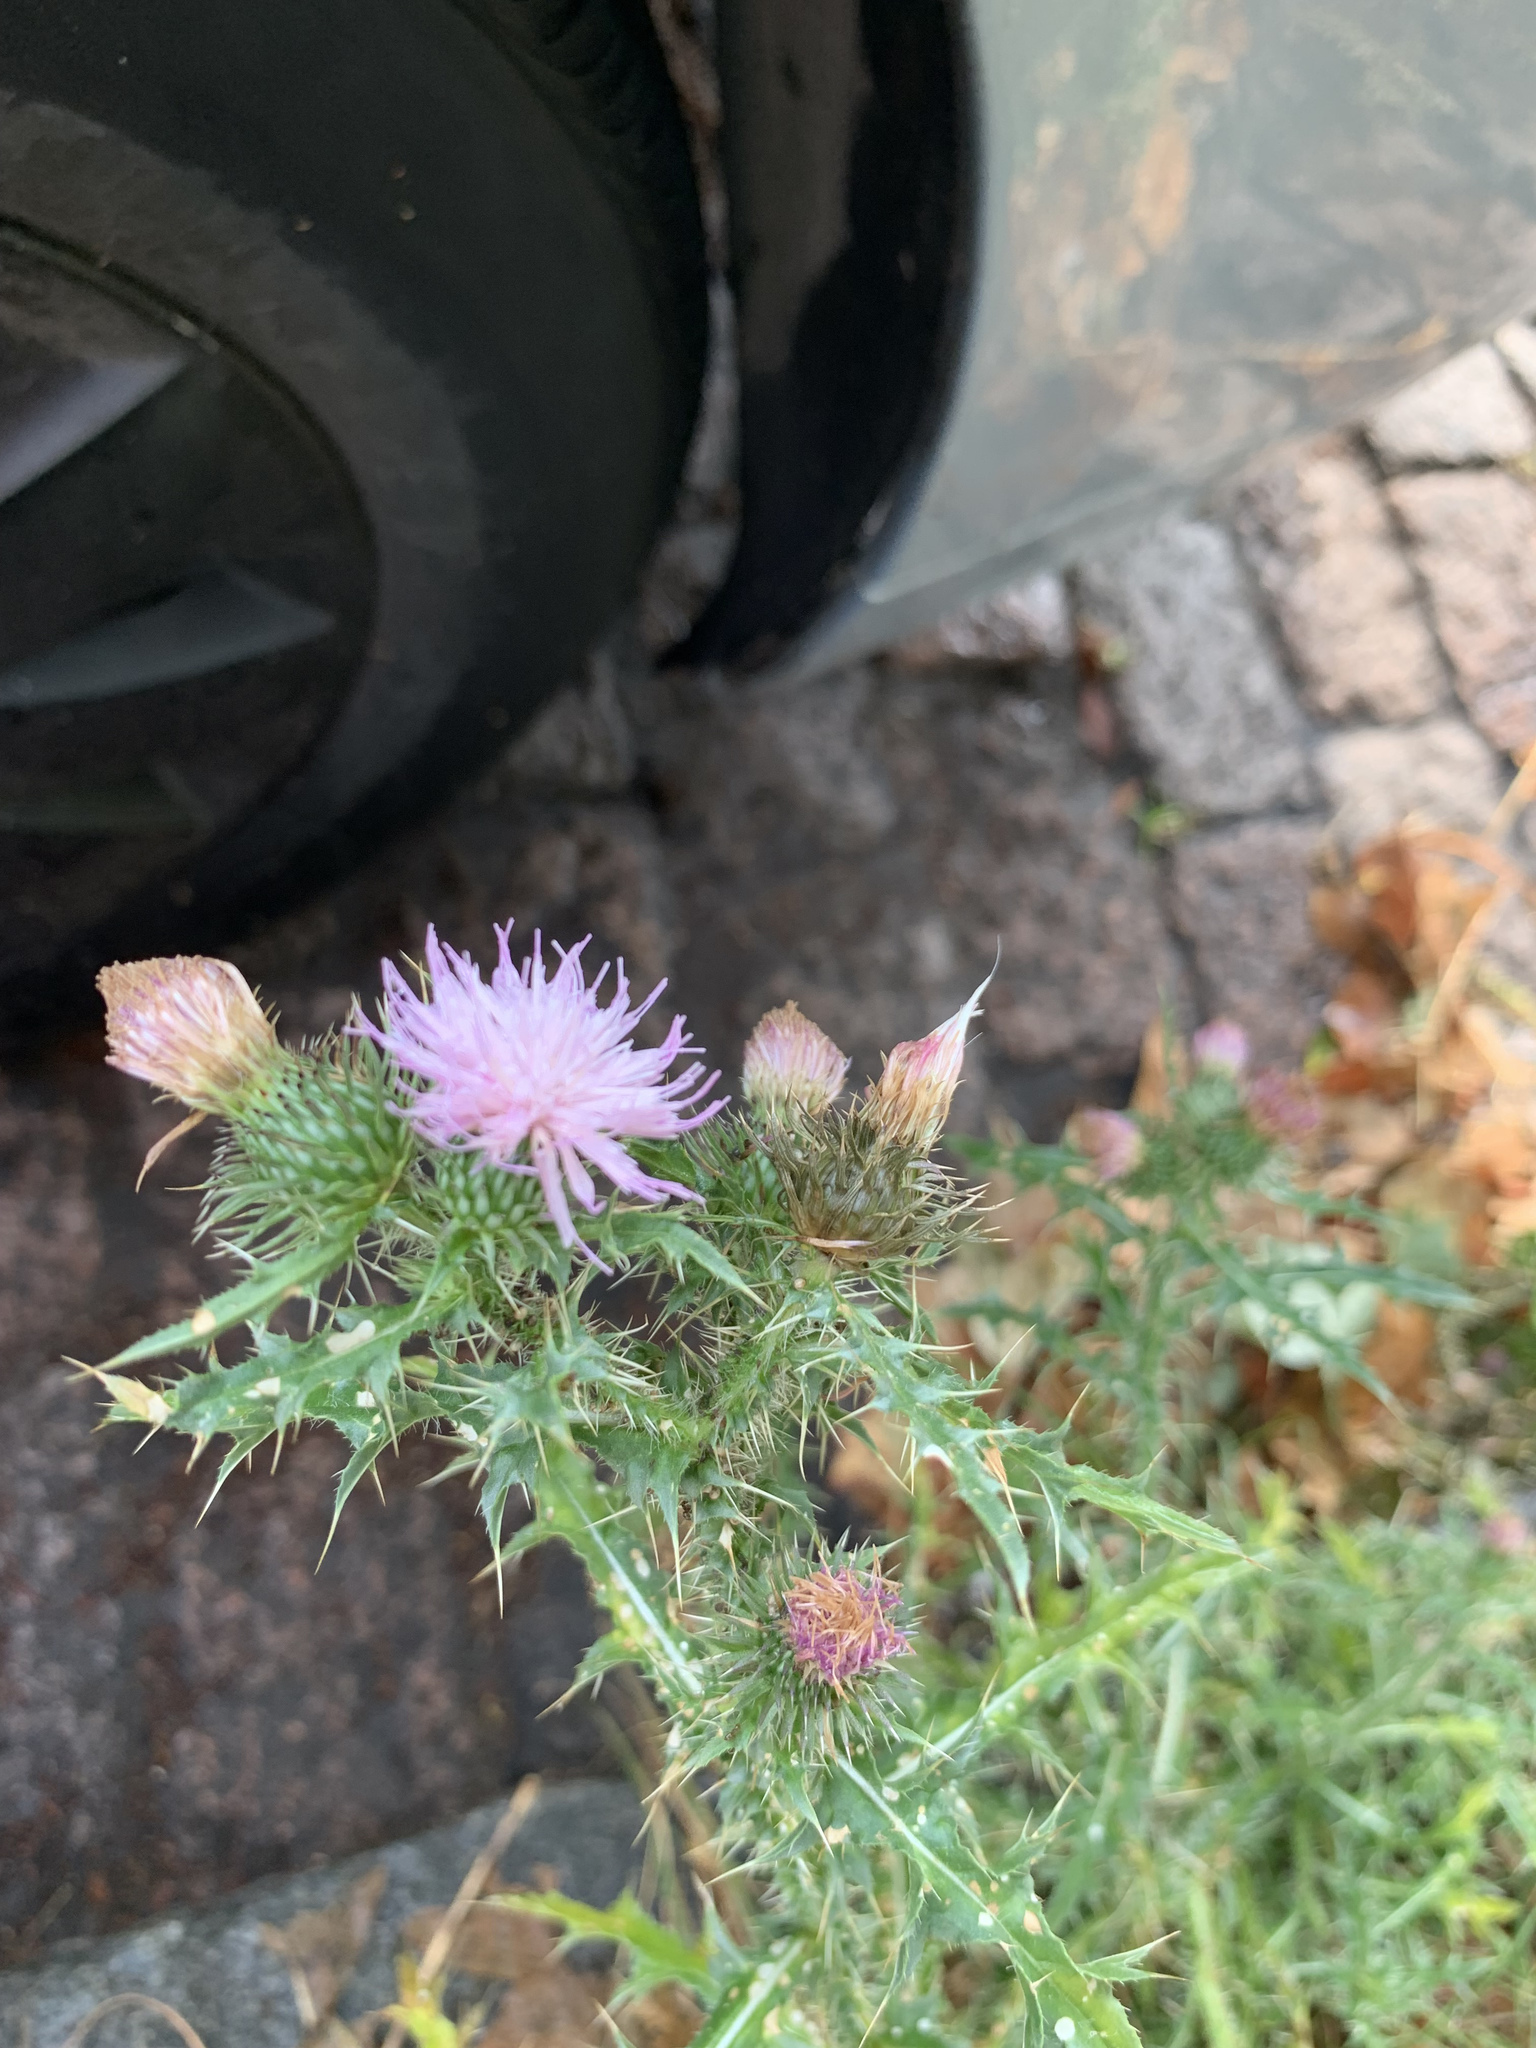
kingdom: Plantae
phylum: Tracheophyta
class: Magnoliopsida
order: Asterales
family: Asteraceae
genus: Carduus
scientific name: Carduus acanthoides
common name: Plumeless thistle
